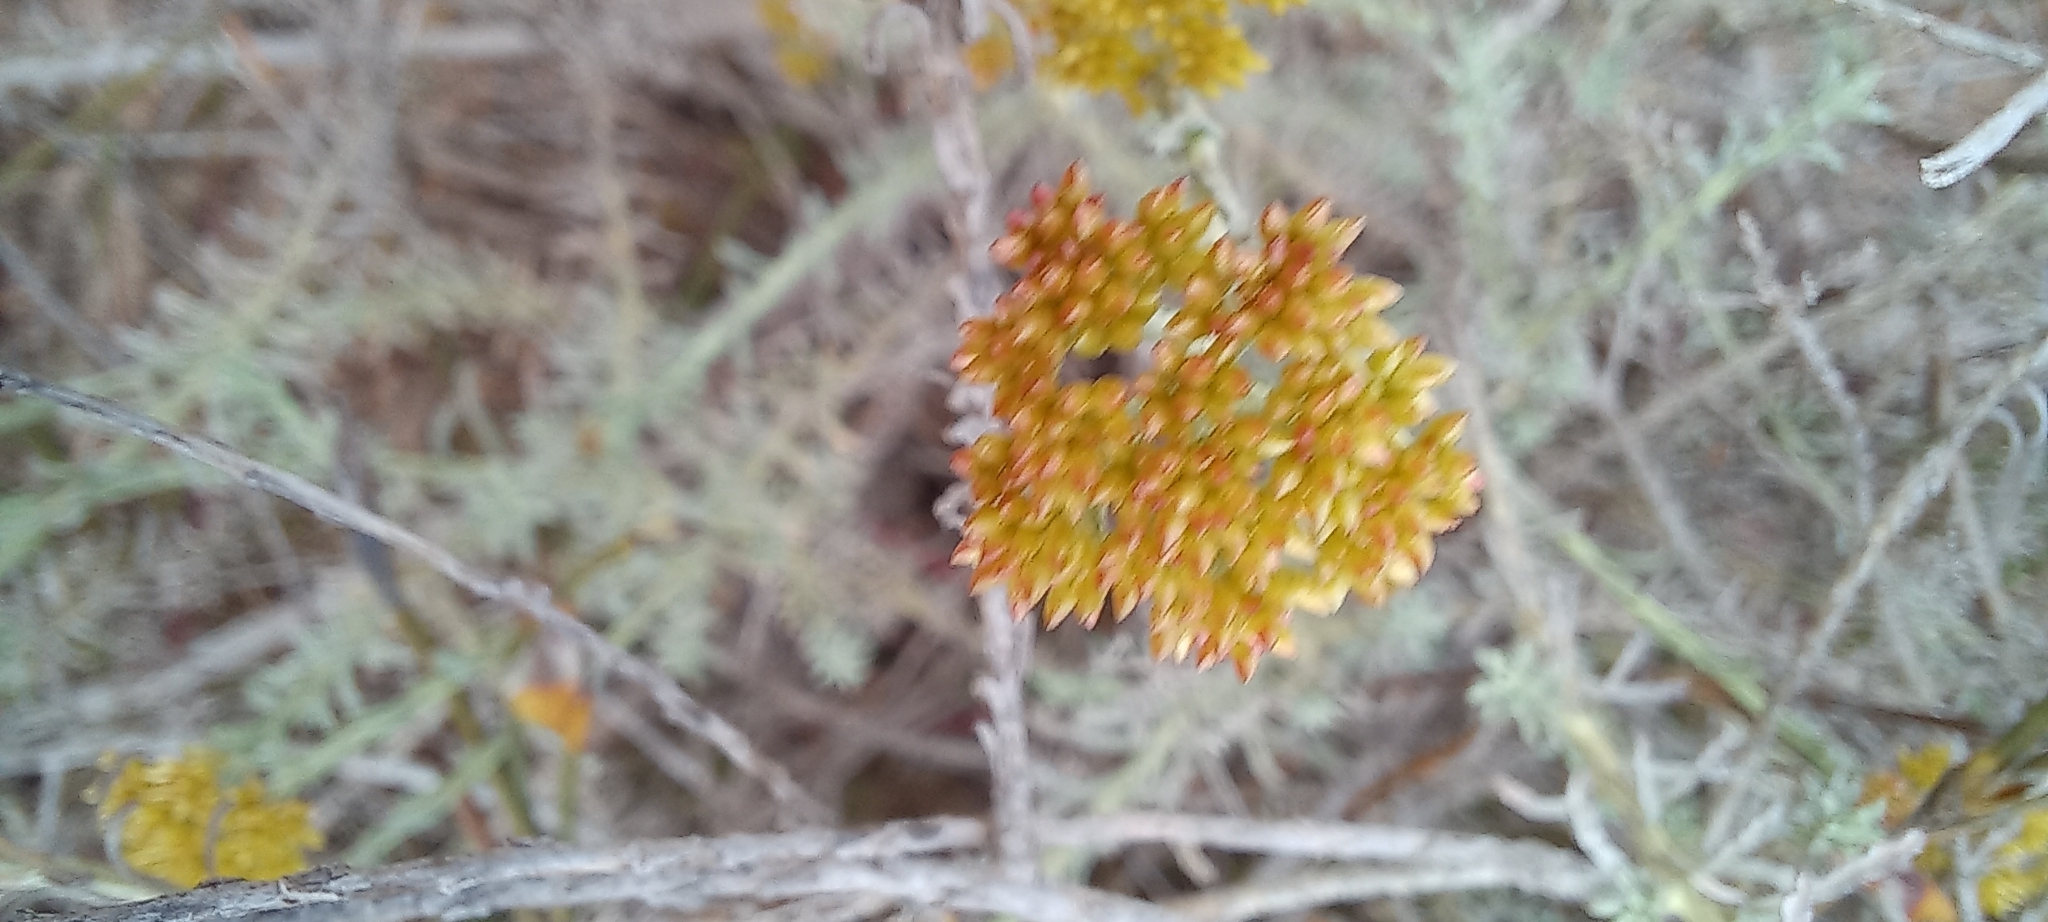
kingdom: Plantae
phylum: Tracheophyta
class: Magnoliopsida
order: Asterales
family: Asteraceae
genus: Helichrysum
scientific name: Helichrysum rutilans
